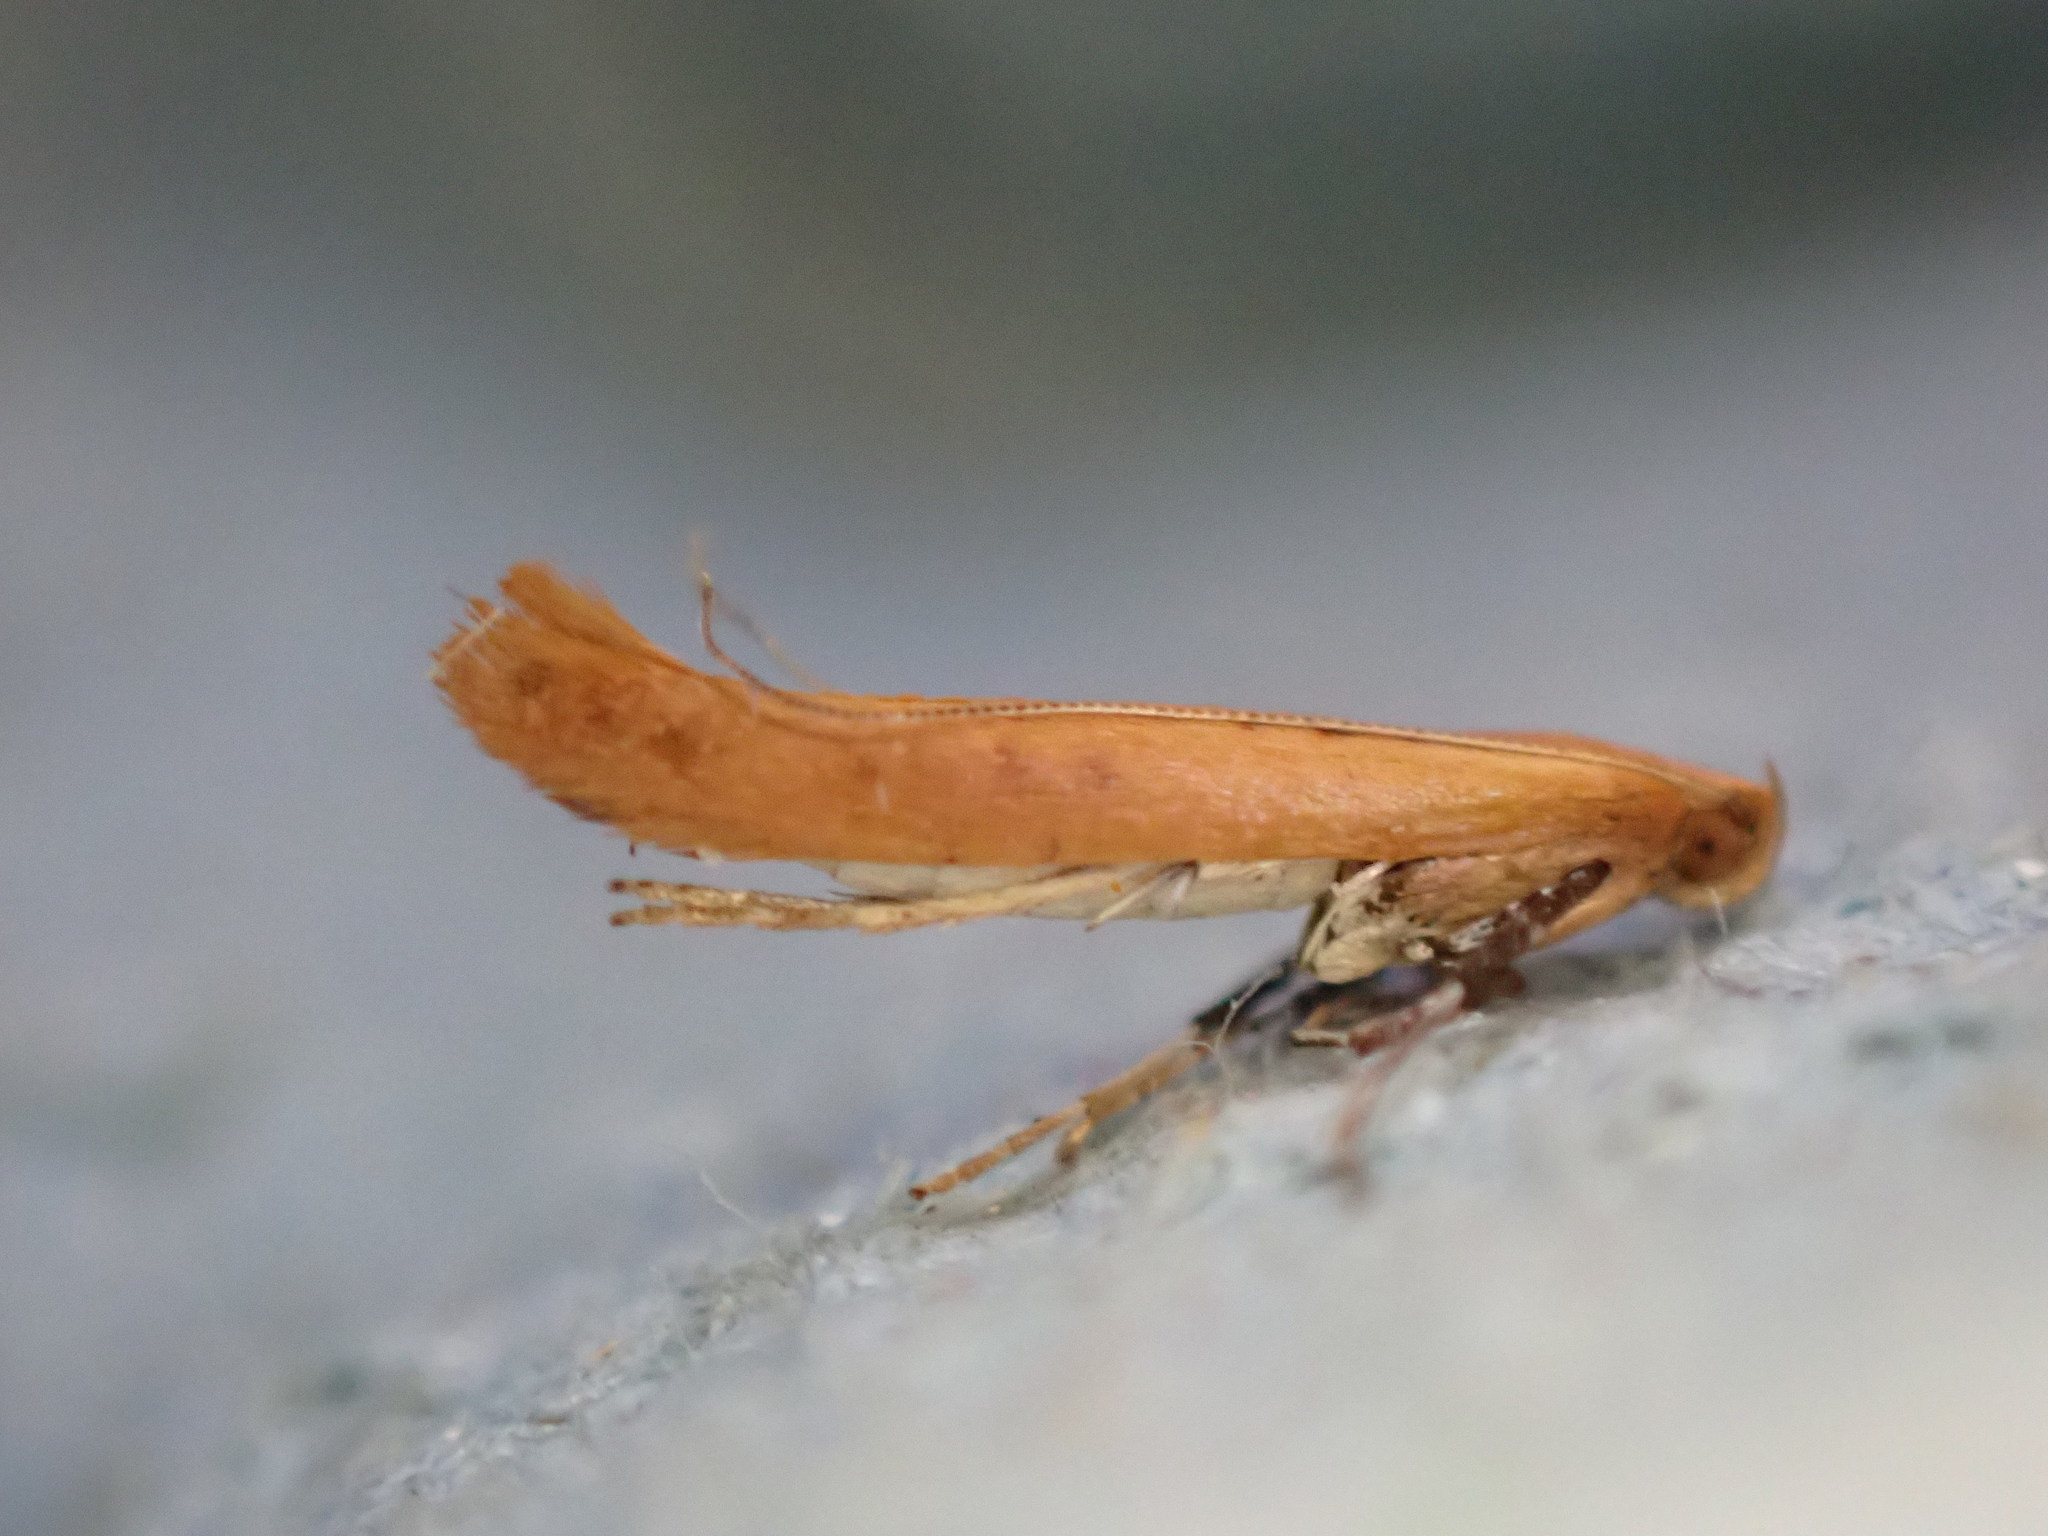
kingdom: Animalia
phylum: Arthropoda
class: Insecta
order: Lepidoptera
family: Gracillariidae
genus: Caloptilia
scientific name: Caloptilia elongella
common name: Pale red slender
